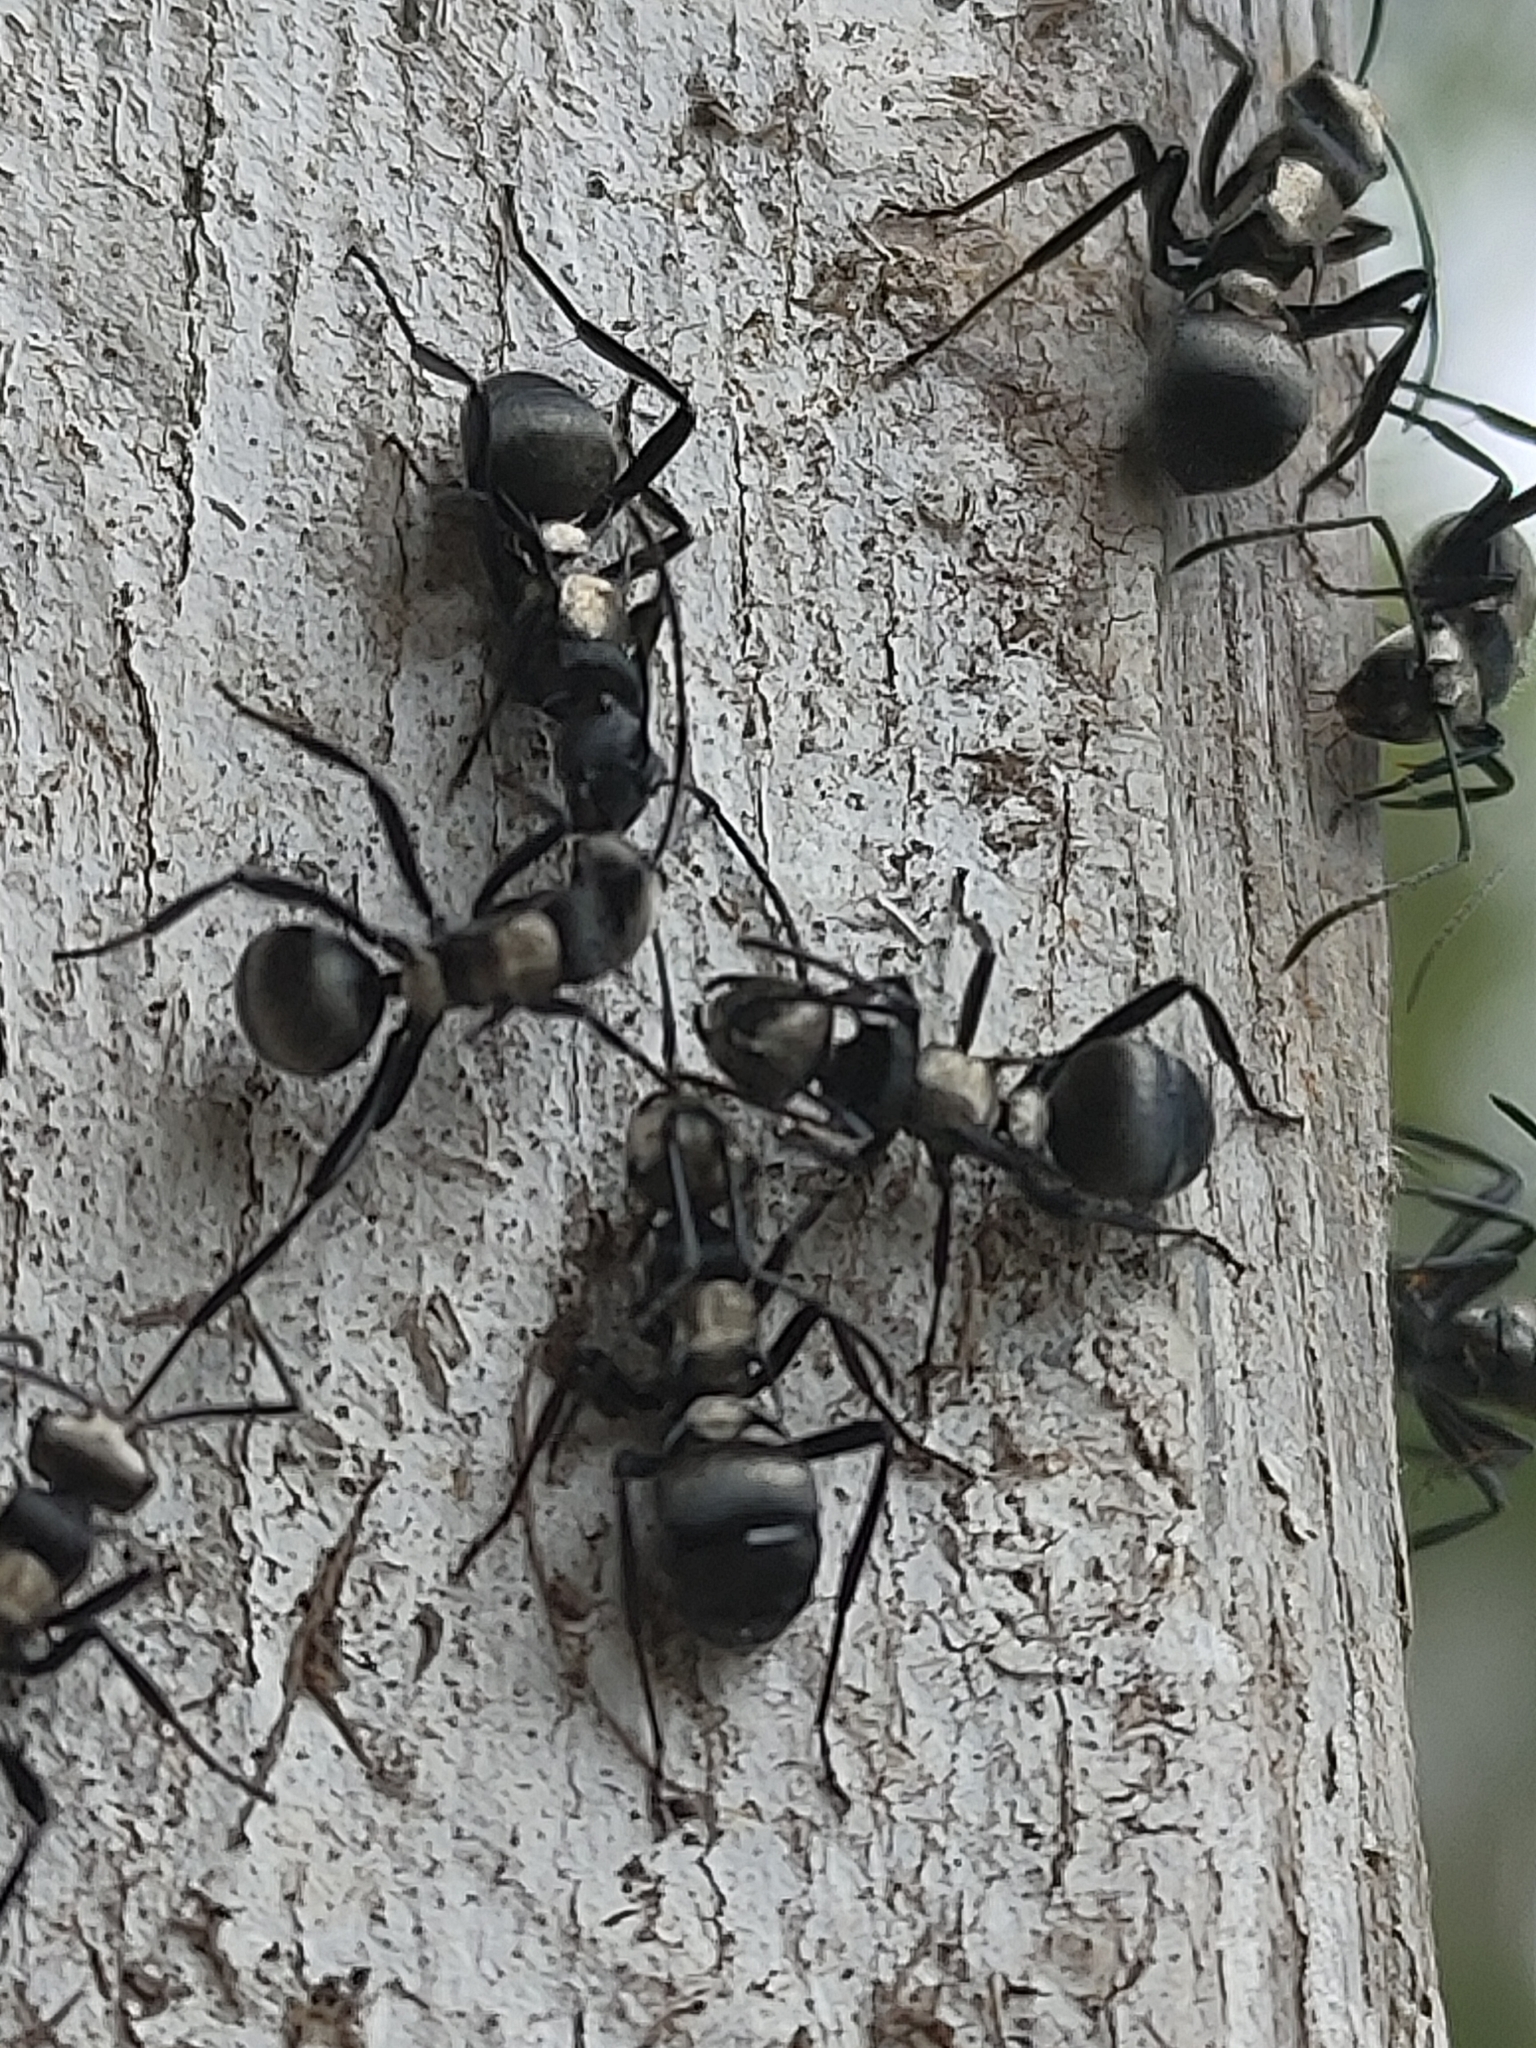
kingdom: Animalia
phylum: Arthropoda
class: Insecta
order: Hymenoptera
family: Formicidae
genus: Polyrhachis
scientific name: Polyrhachis daemeli
